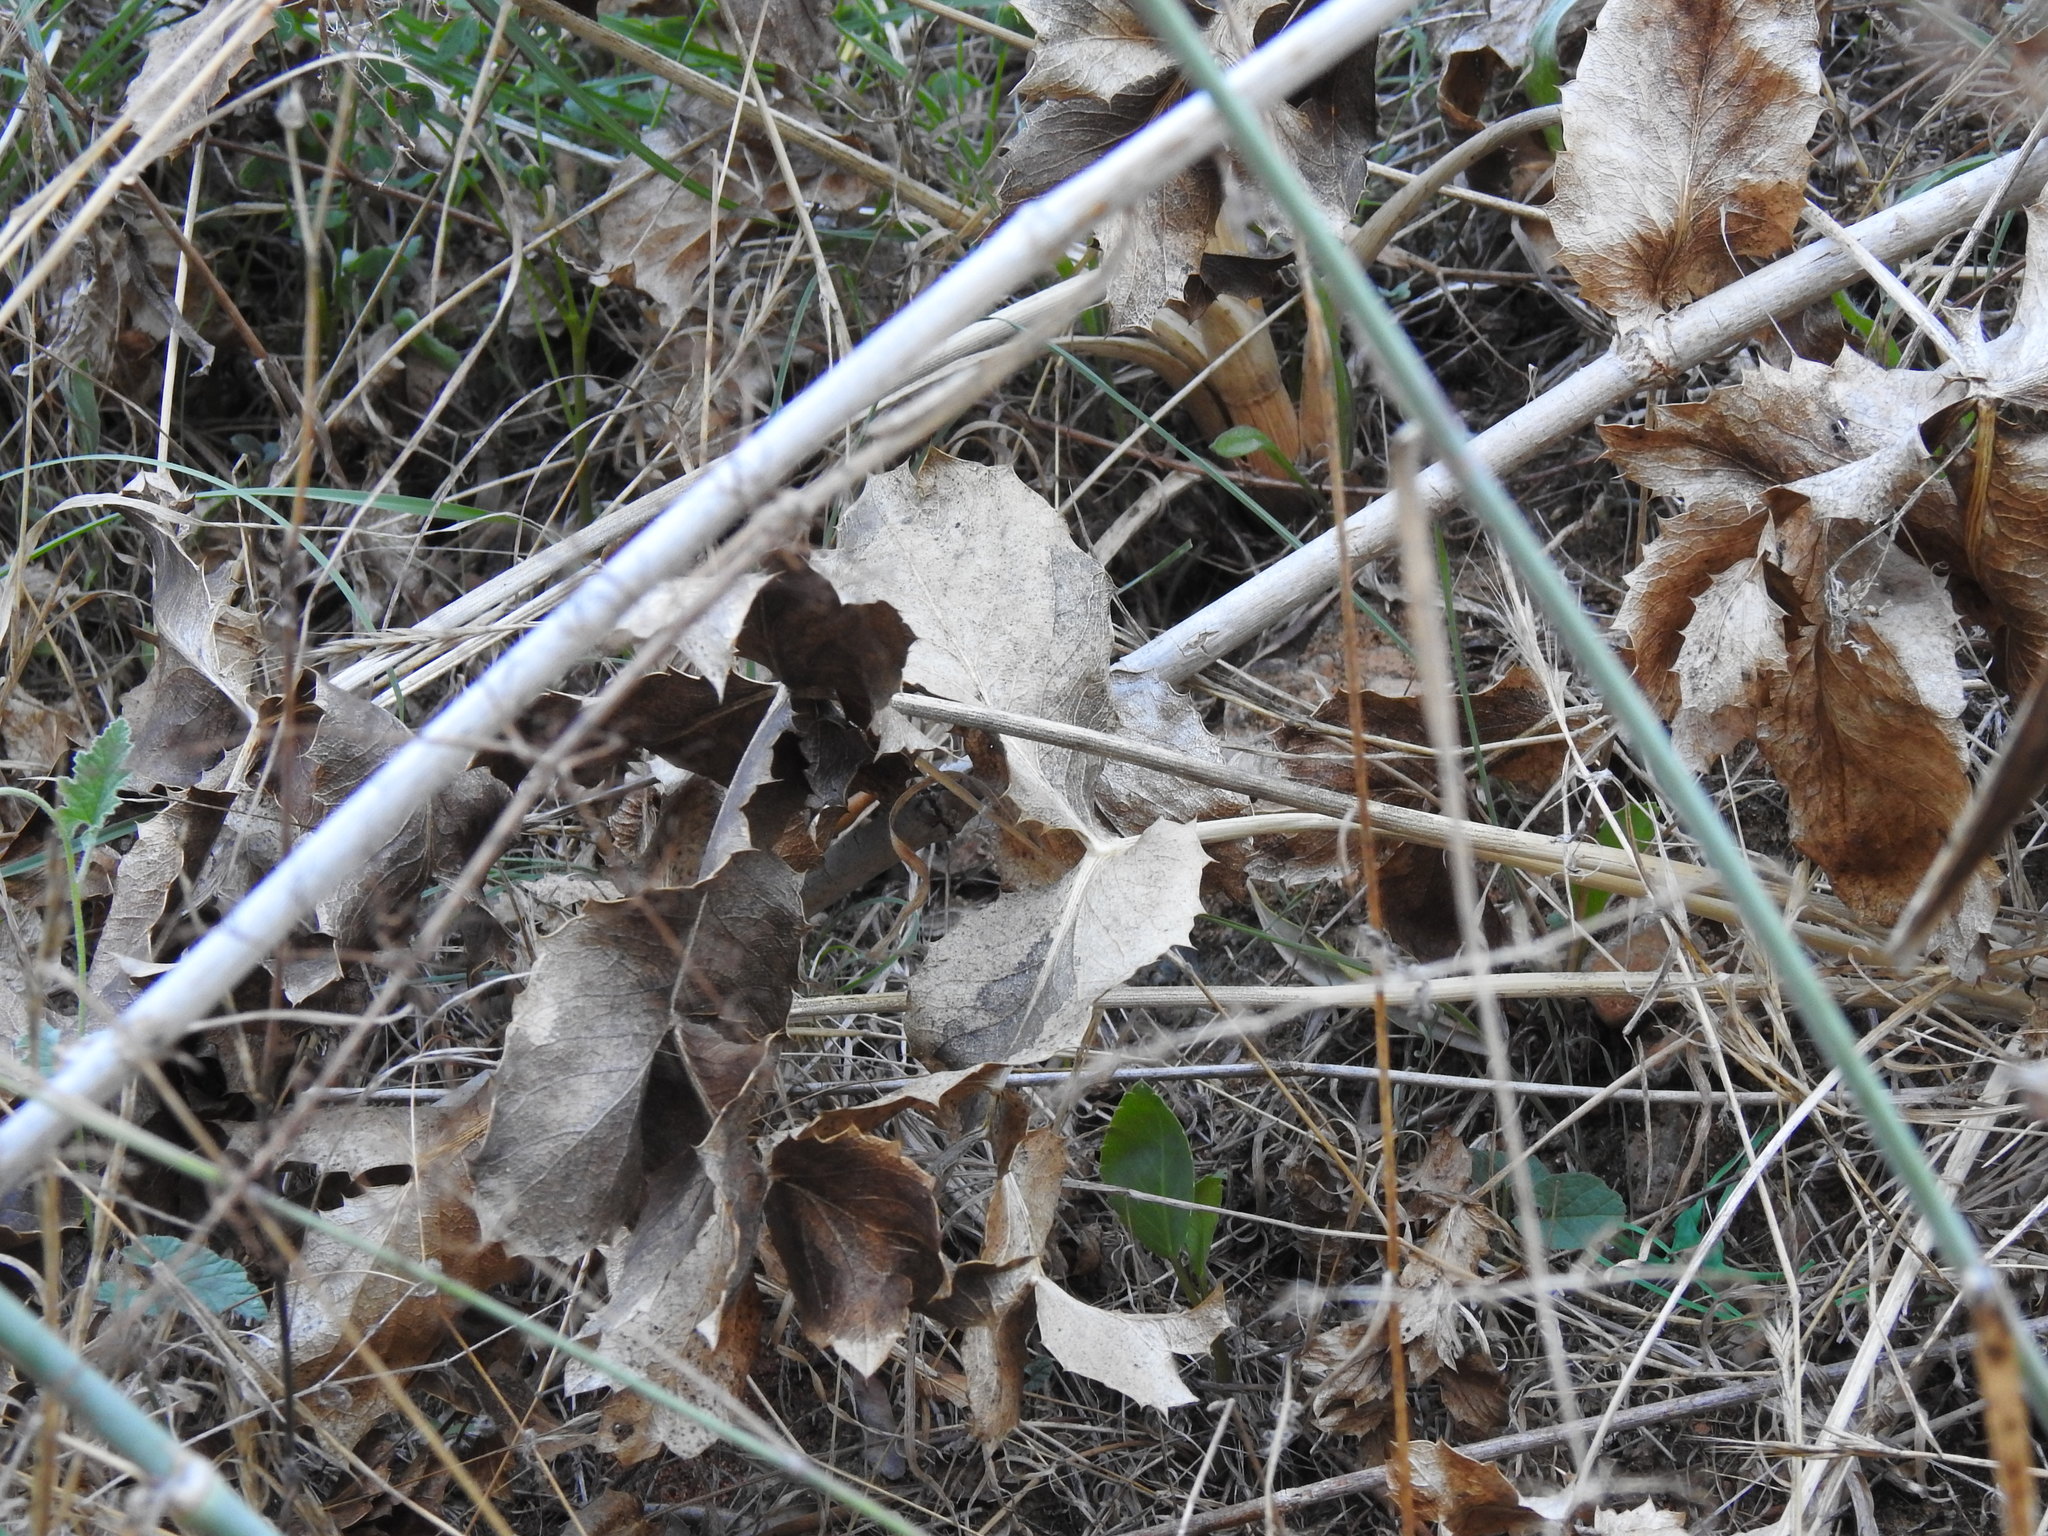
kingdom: Plantae
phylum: Tracheophyta
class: Magnoliopsida
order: Apiales
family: Apiaceae
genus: Eryngium
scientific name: Eryngium campestre
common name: Field eryngo
